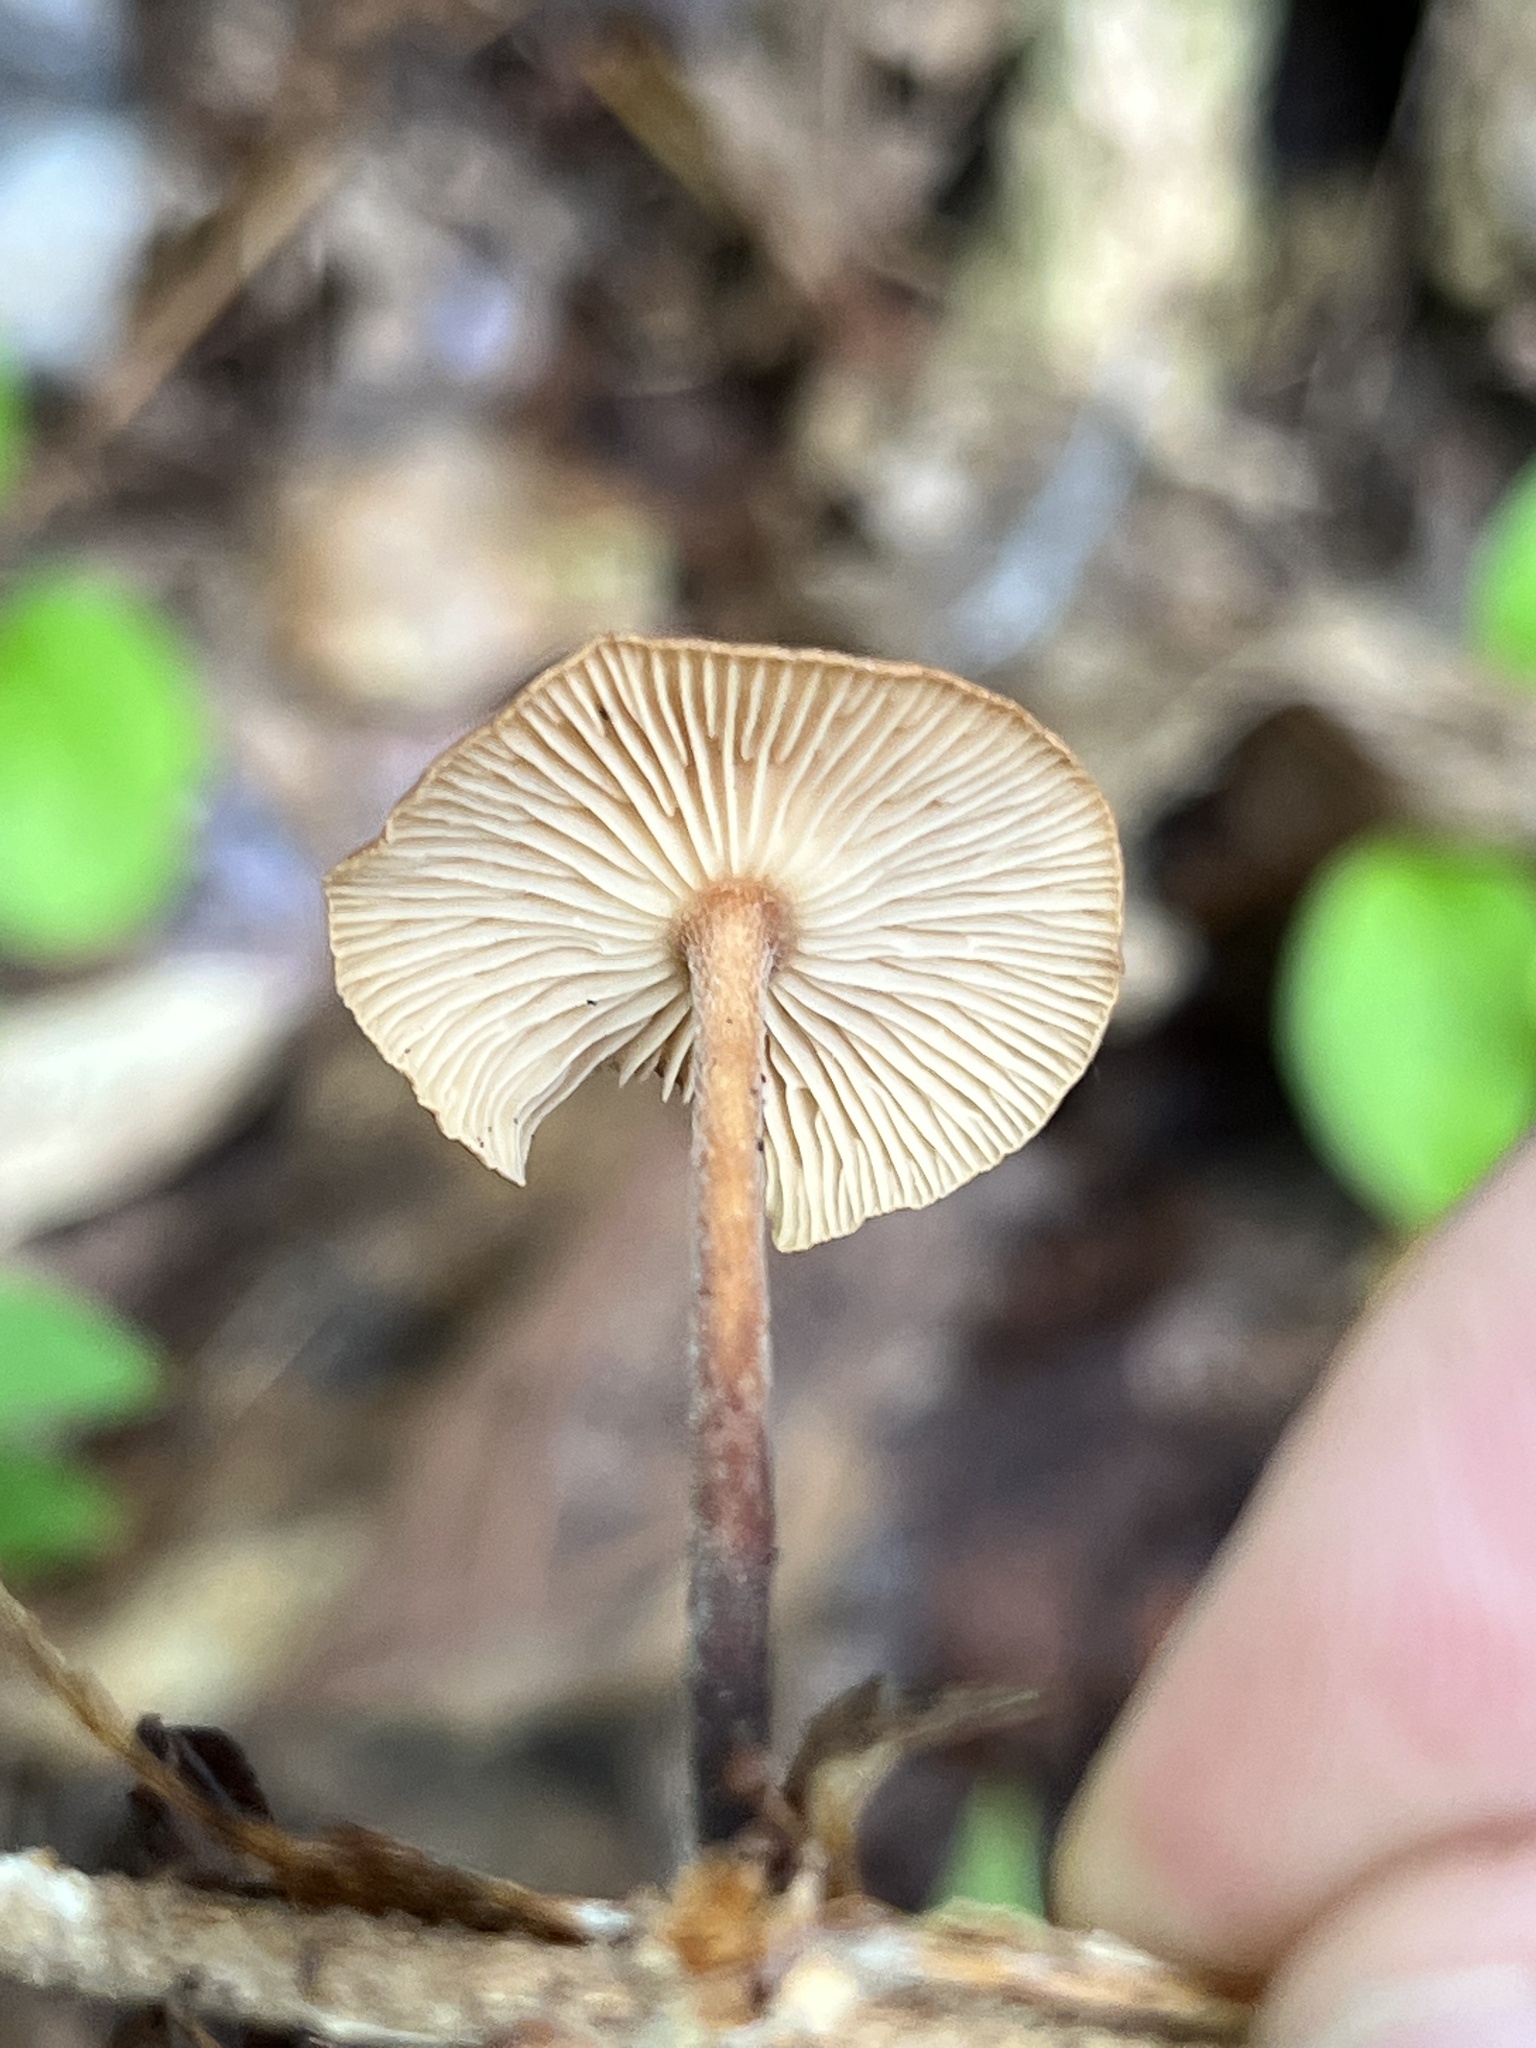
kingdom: Fungi
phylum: Basidiomycota
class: Agaricomycetes
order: Agaricales
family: Physalacriaceae
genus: Rhizomarasmius
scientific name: Rhizomarasmius pyrrhocephalus
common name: Hairy long stem marasmius
